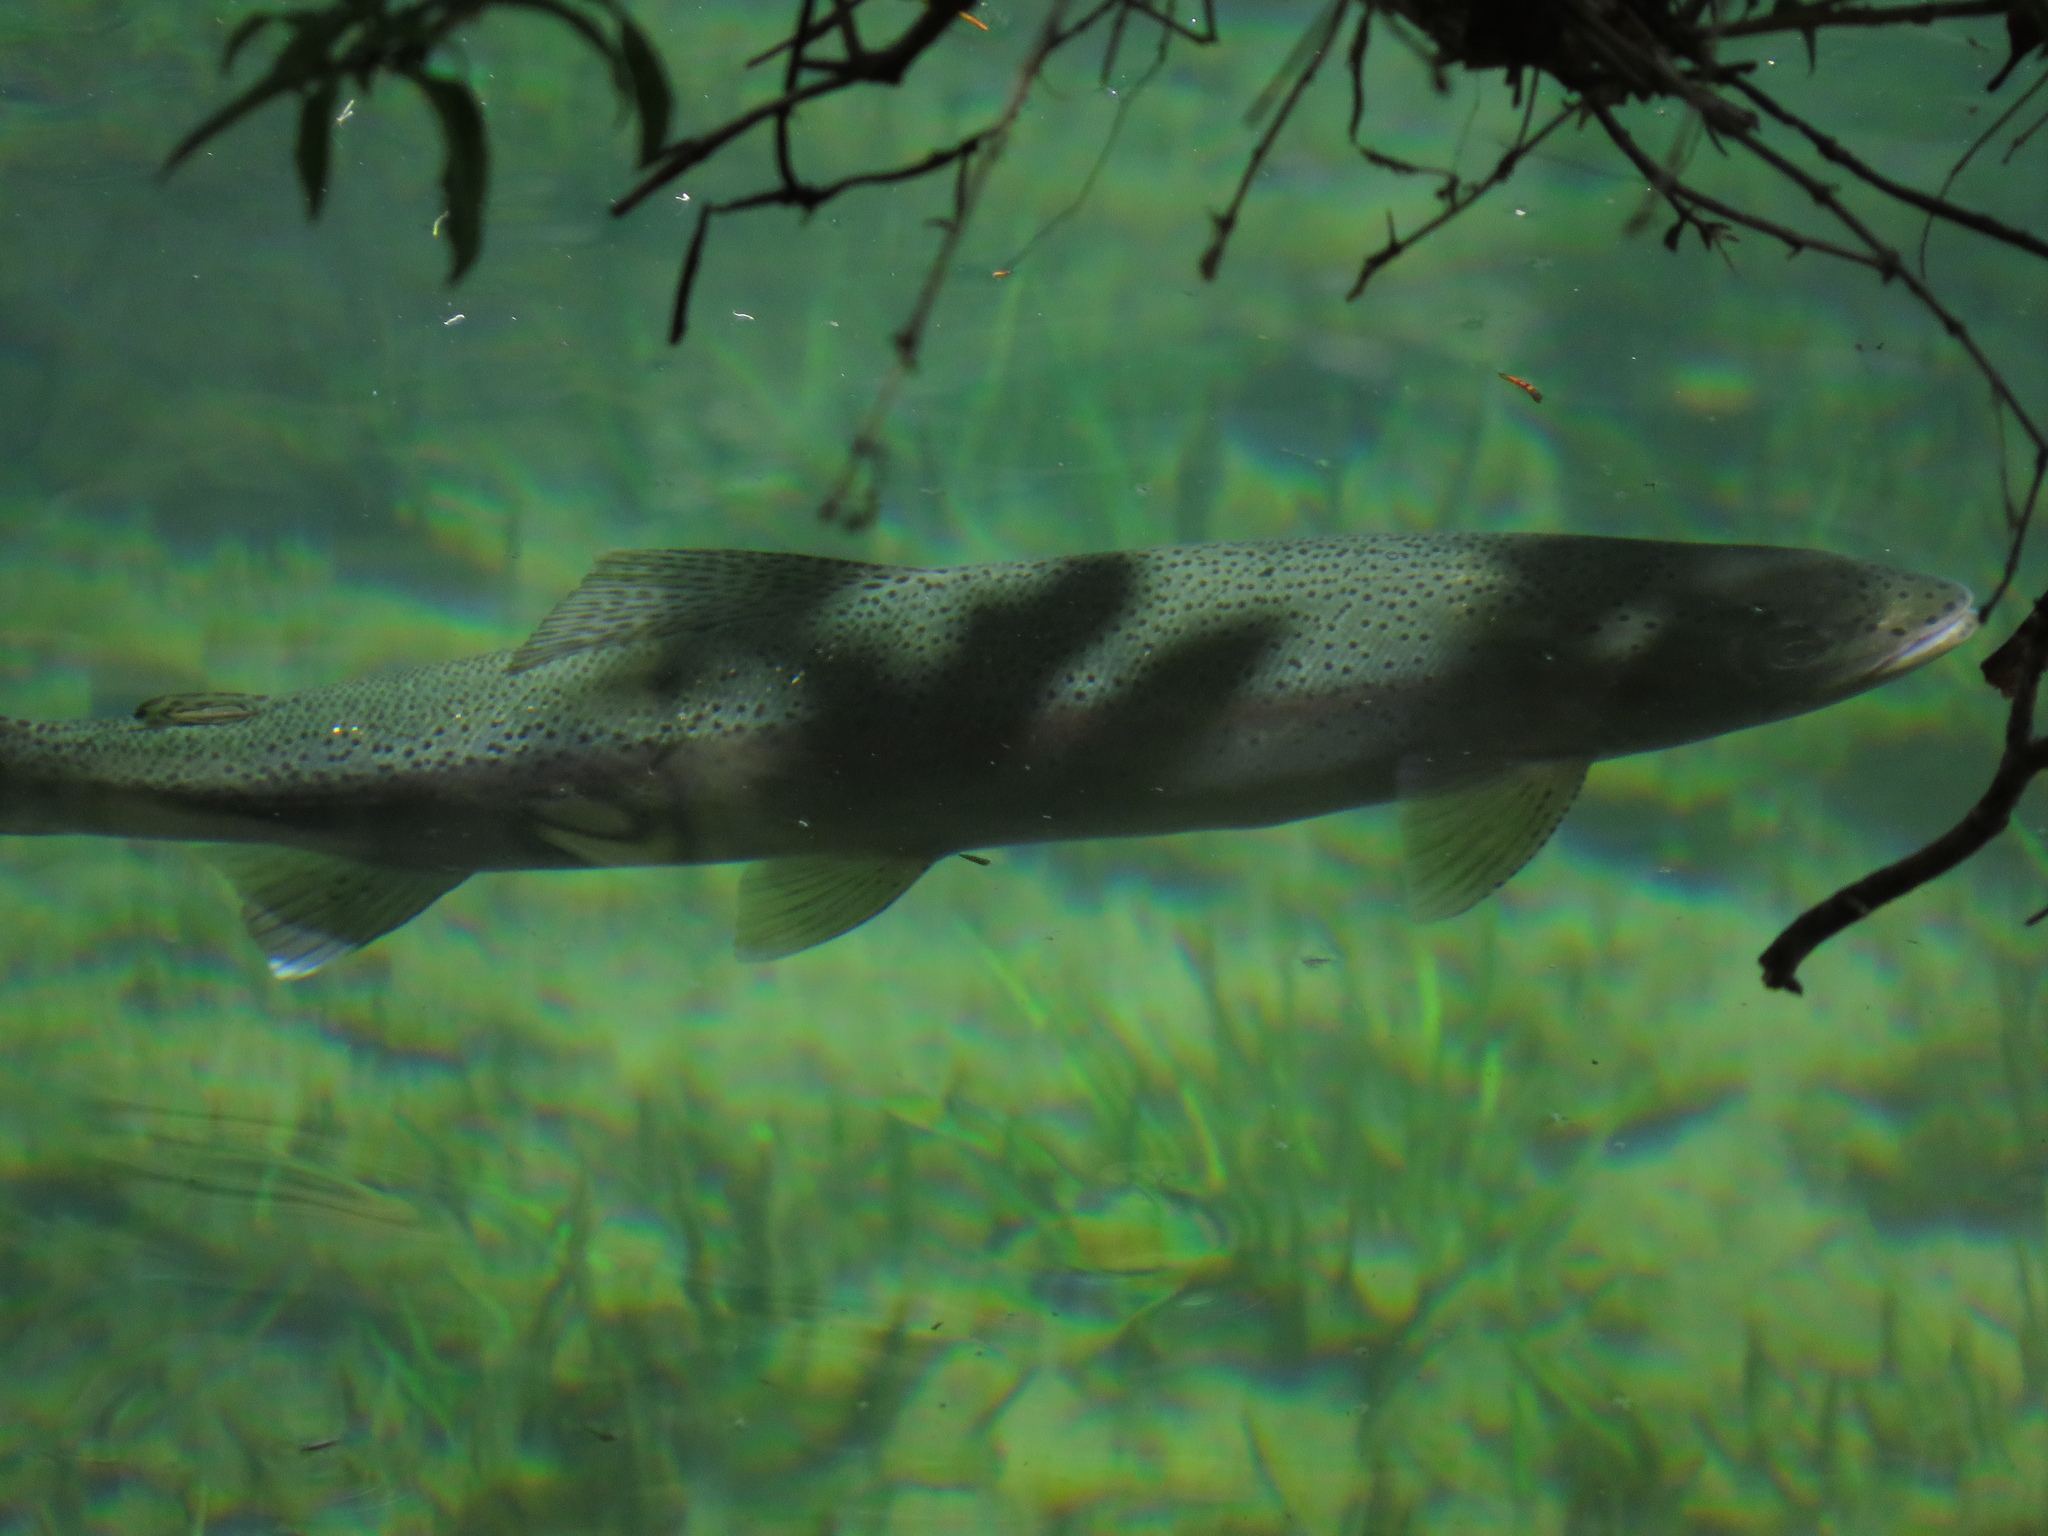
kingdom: Animalia
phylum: Chordata
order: Salmoniformes
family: Salmonidae
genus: Oncorhynchus
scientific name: Oncorhynchus mykiss
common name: Rainbow trout
